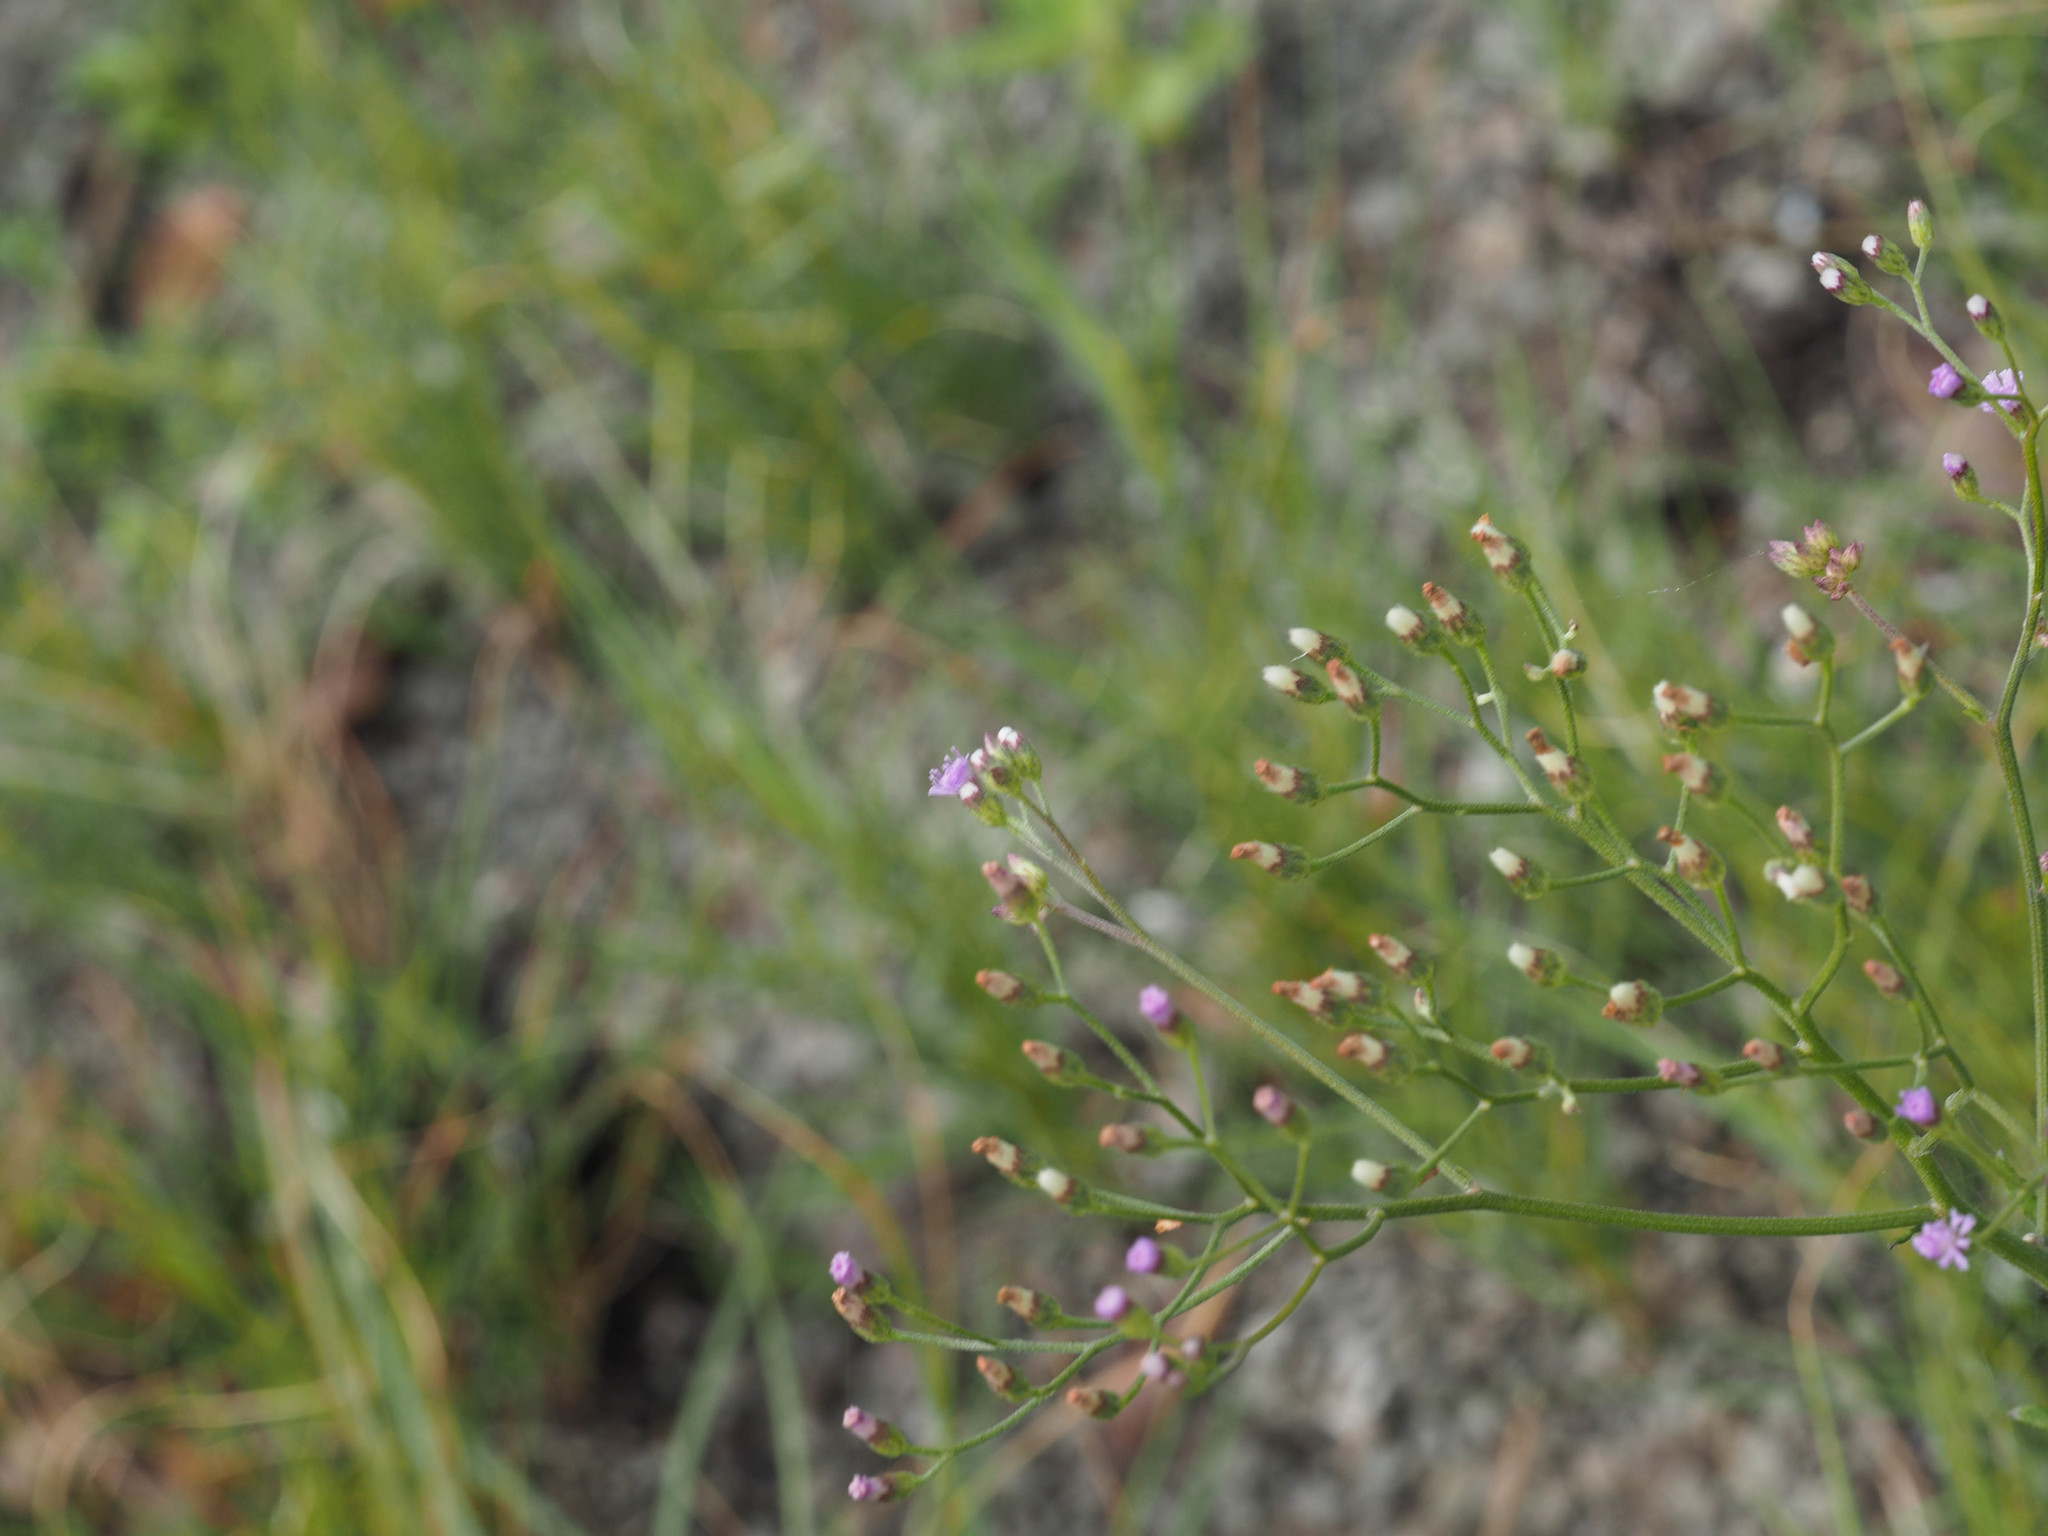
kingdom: Plantae
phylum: Tracheophyta
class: Magnoliopsida
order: Asterales
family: Asteraceae
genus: Cyanthillium
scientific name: Cyanthillium cinereum
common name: Little ironweed
